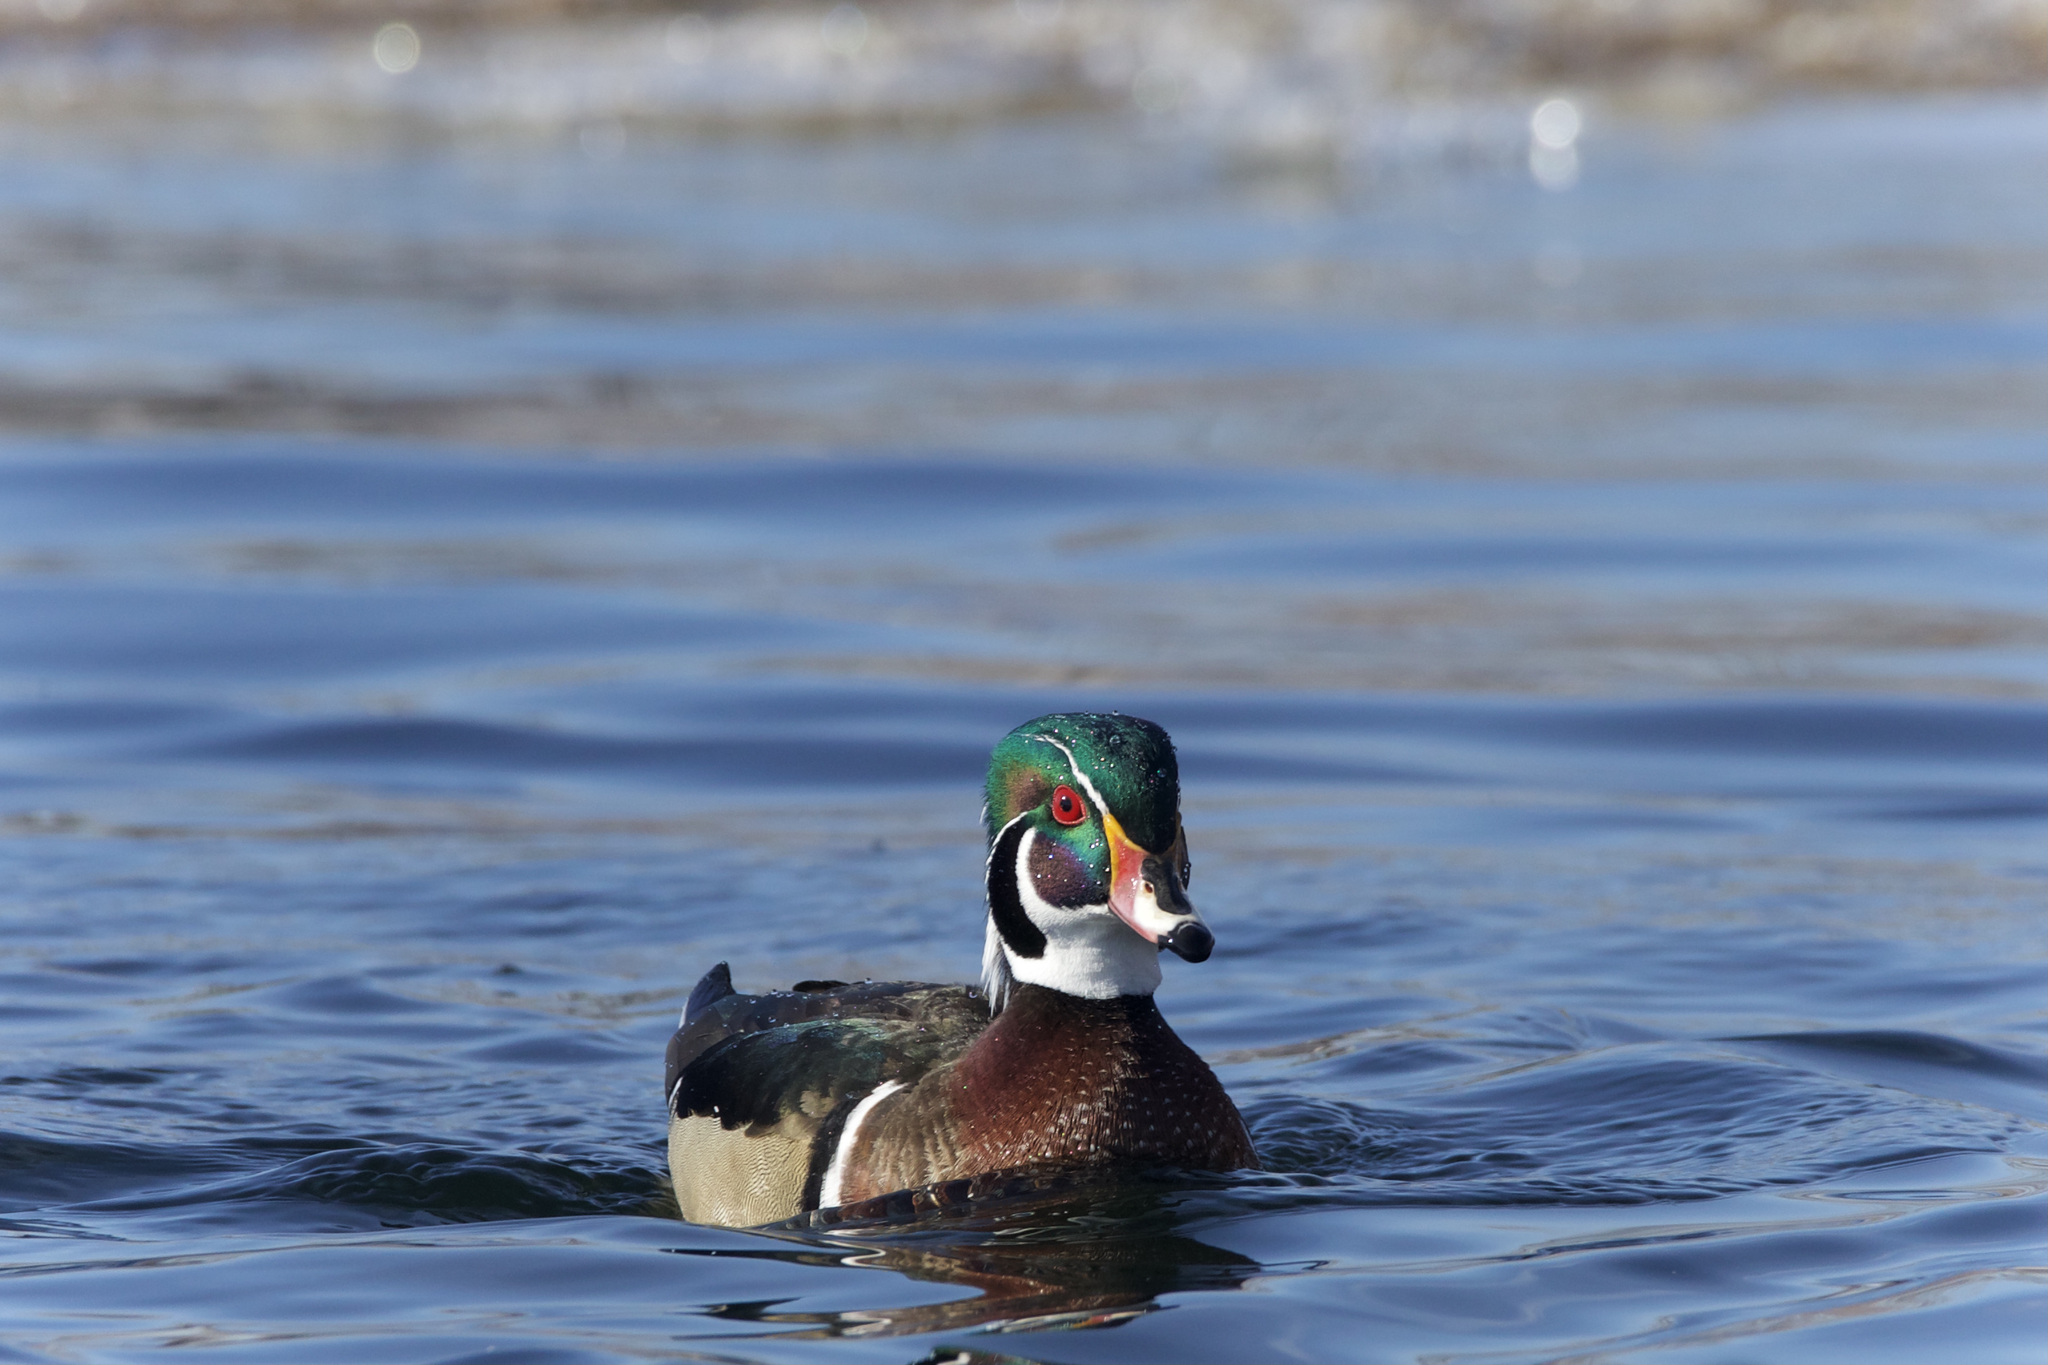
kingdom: Animalia
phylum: Chordata
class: Aves
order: Anseriformes
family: Anatidae
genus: Aix
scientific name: Aix sponsa
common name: Wood duck
